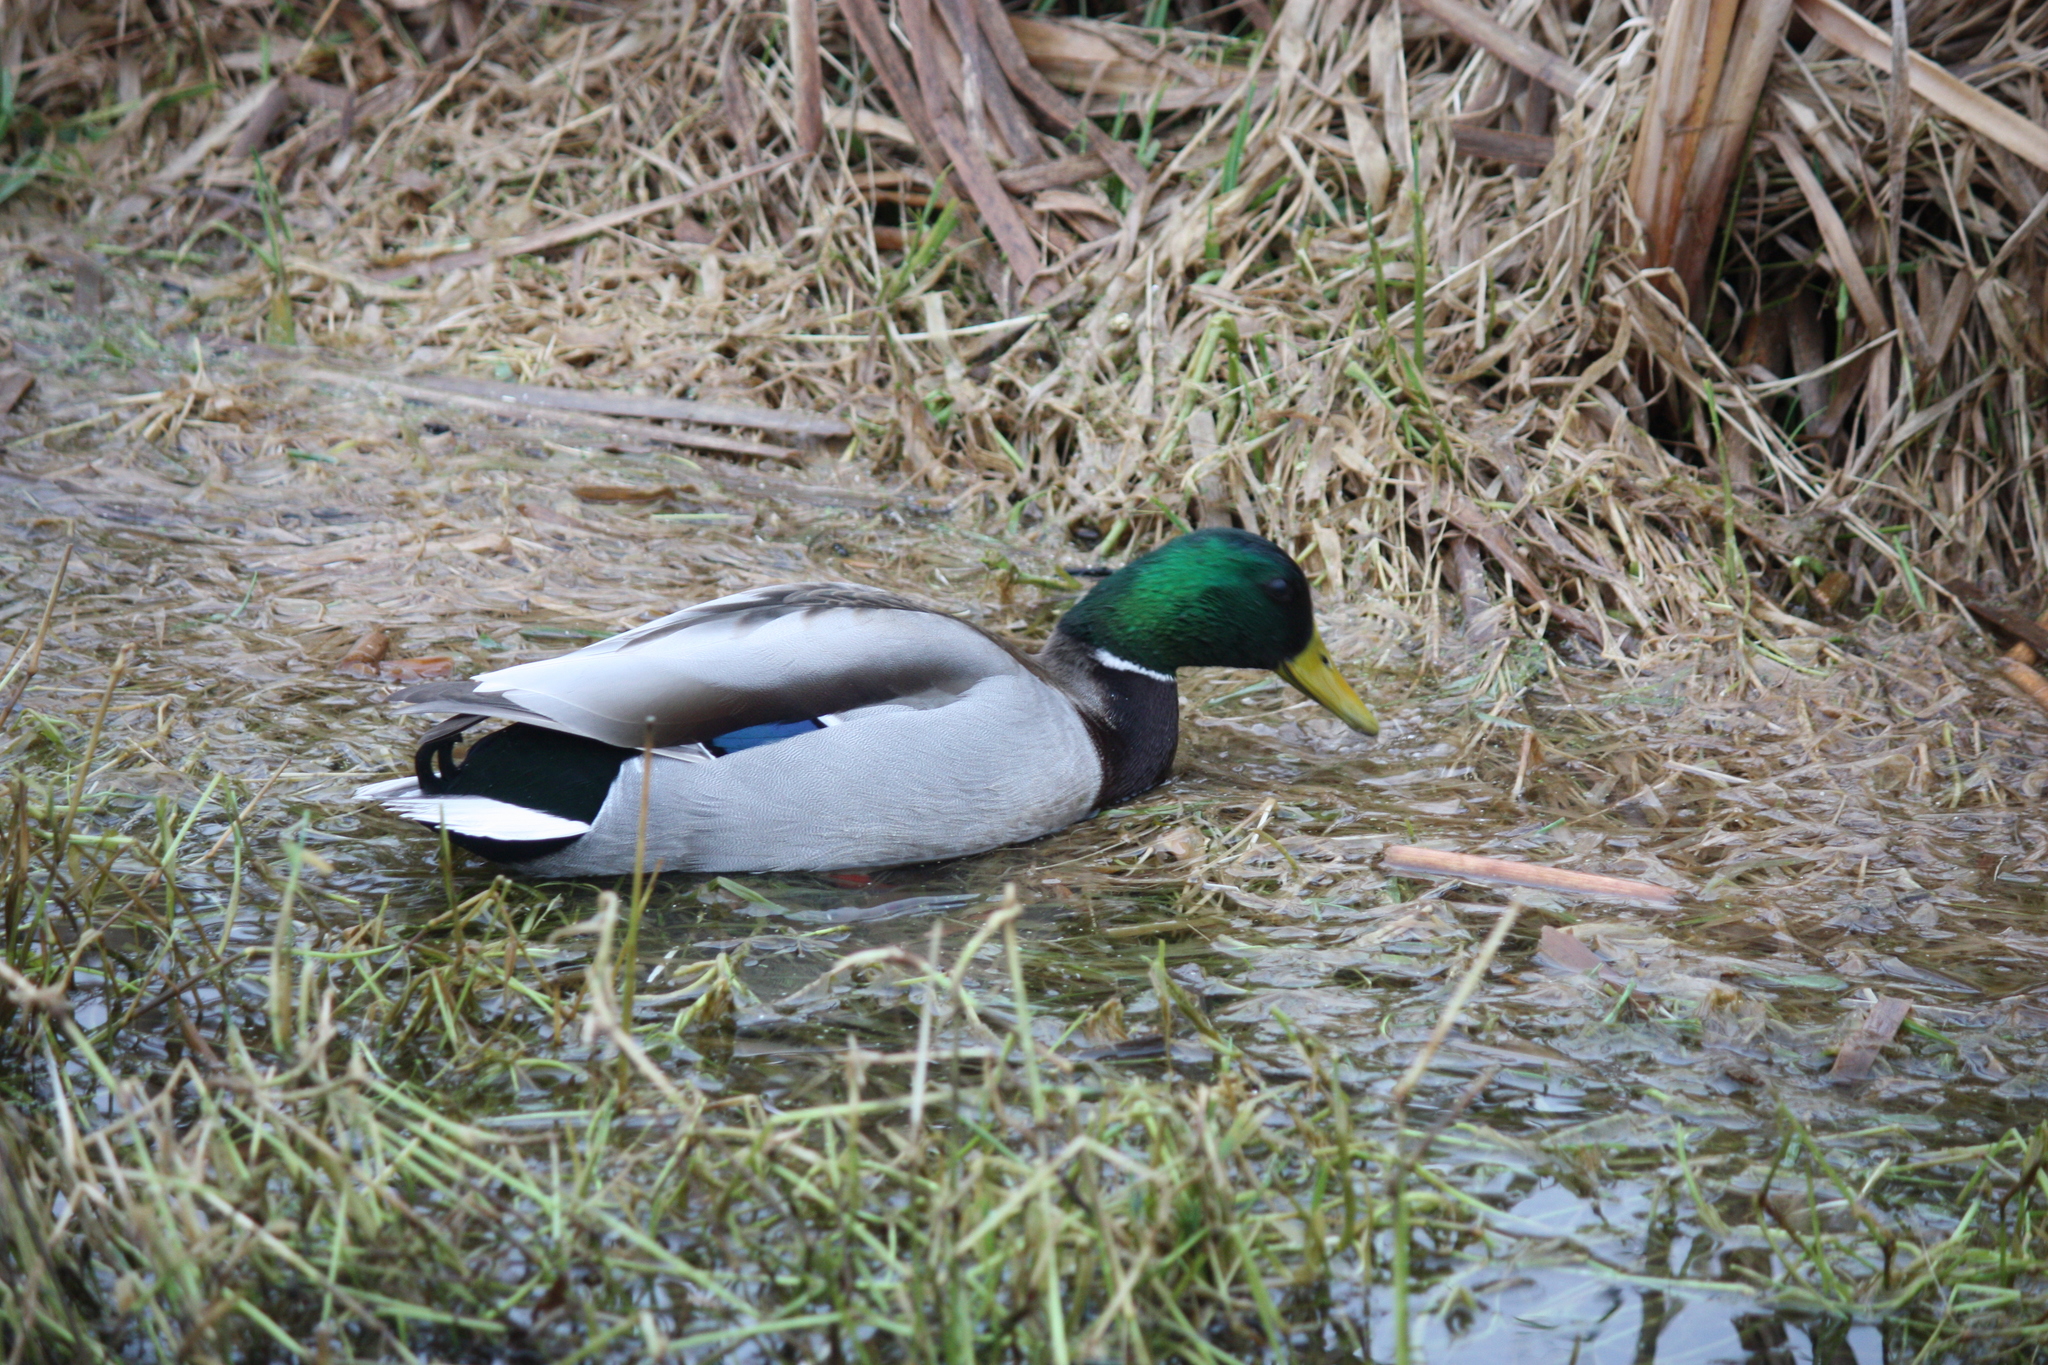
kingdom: Animalia
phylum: Chordata
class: Aves
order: Anseriformes
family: Anatidae
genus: Anas
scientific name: Anas platyrhynchos
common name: Mallard
